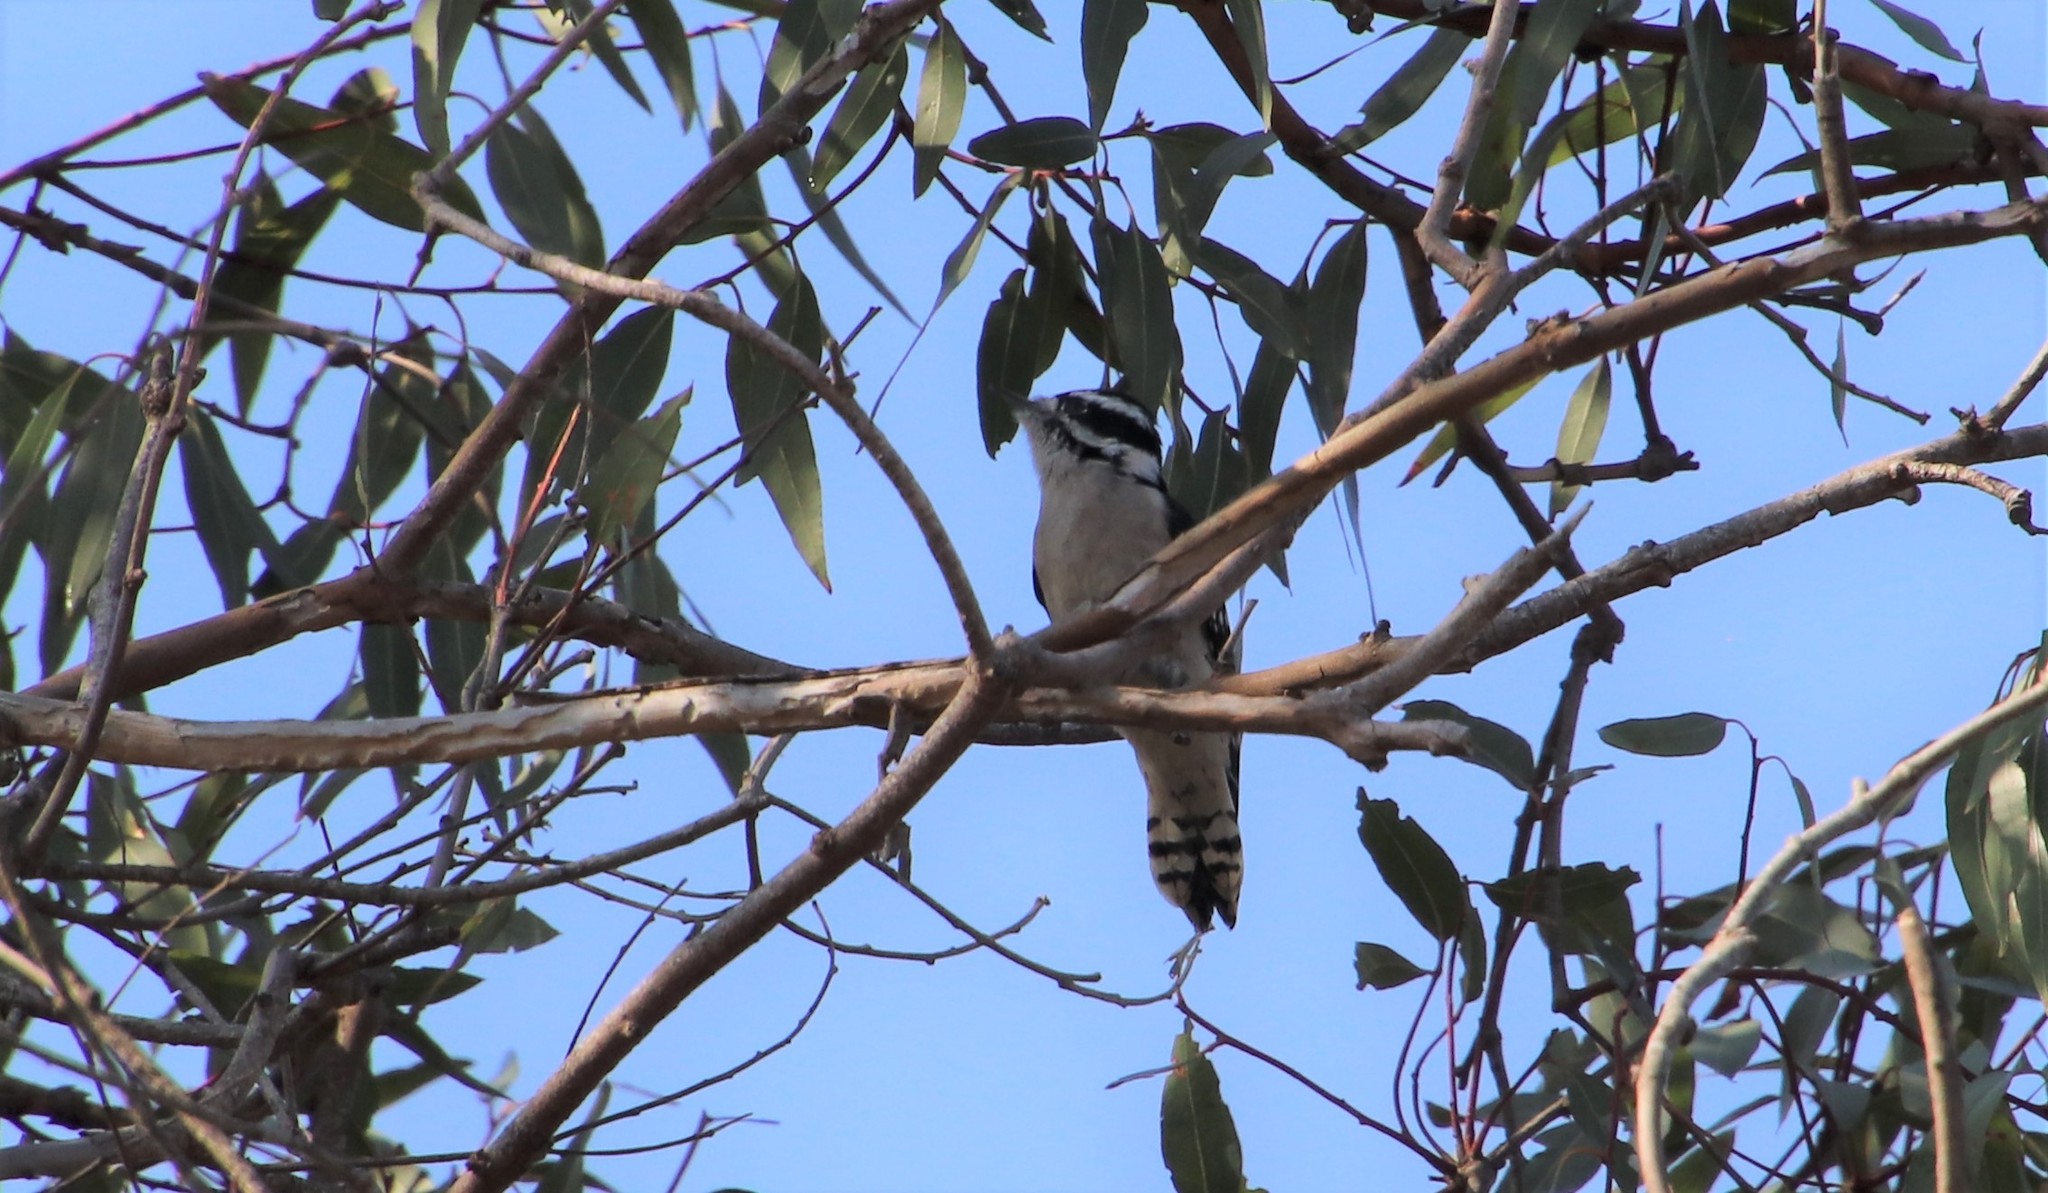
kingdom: Animalia
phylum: Chordata
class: Aves
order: Piciformes
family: Picidae
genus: Dryobates
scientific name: Dryobates pubescens
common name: Downy woodpecker
